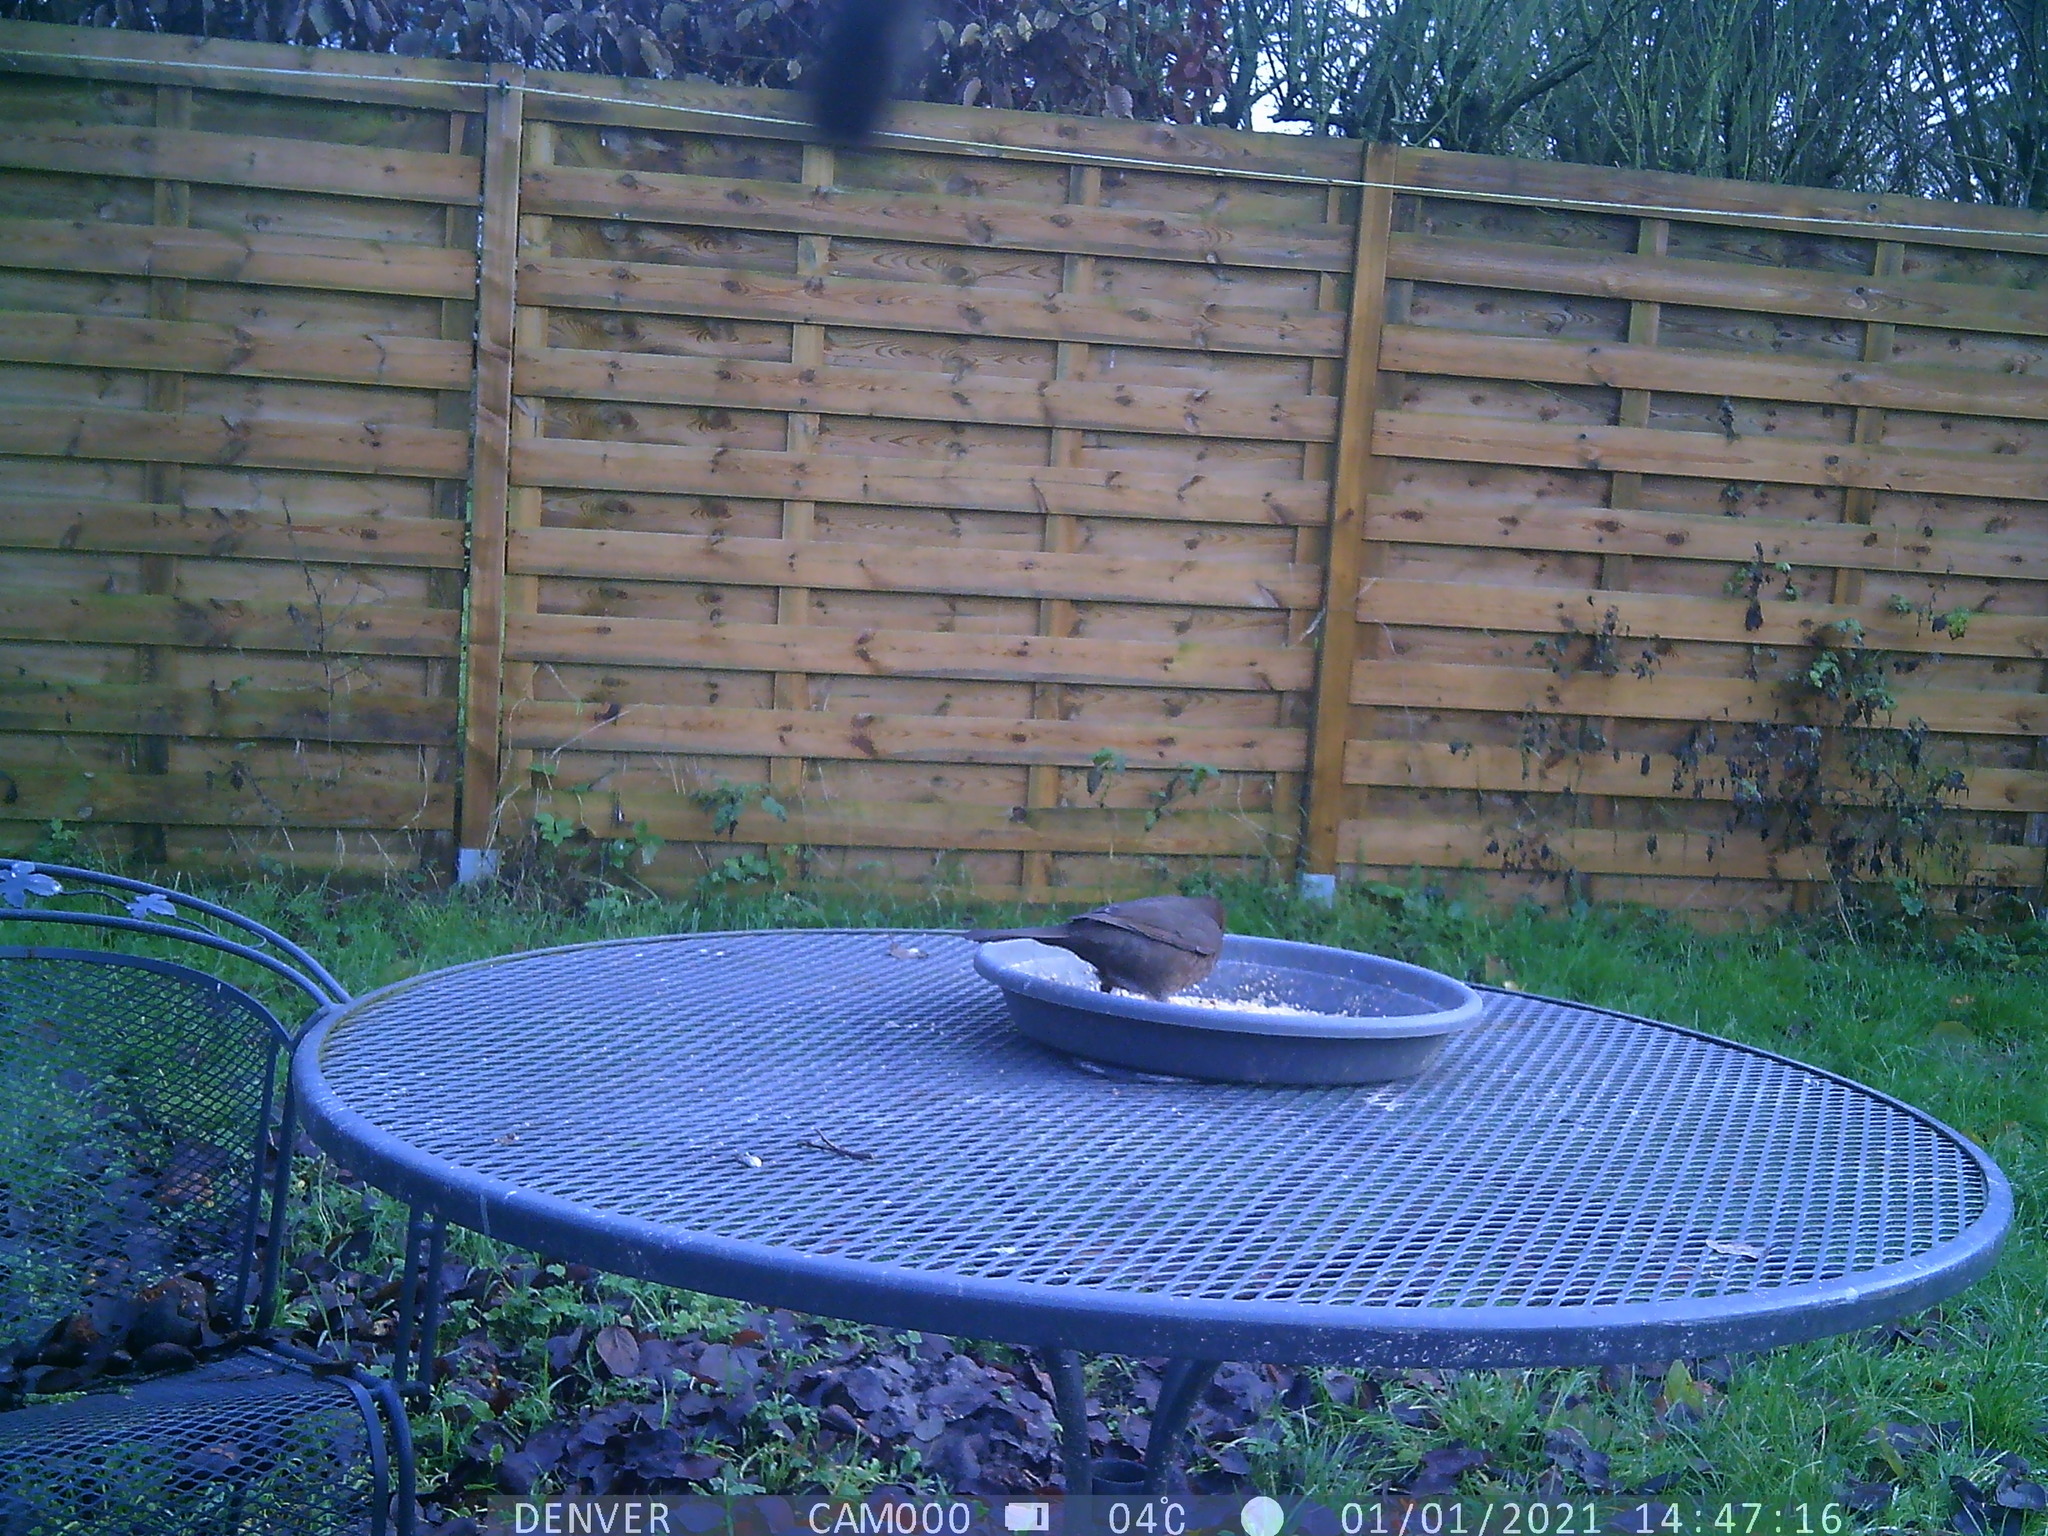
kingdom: Animalia
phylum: Chordata
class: Aves
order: Passeriformes
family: Turdidae
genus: Turdus
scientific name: Turdus merula
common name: Common blackbird
